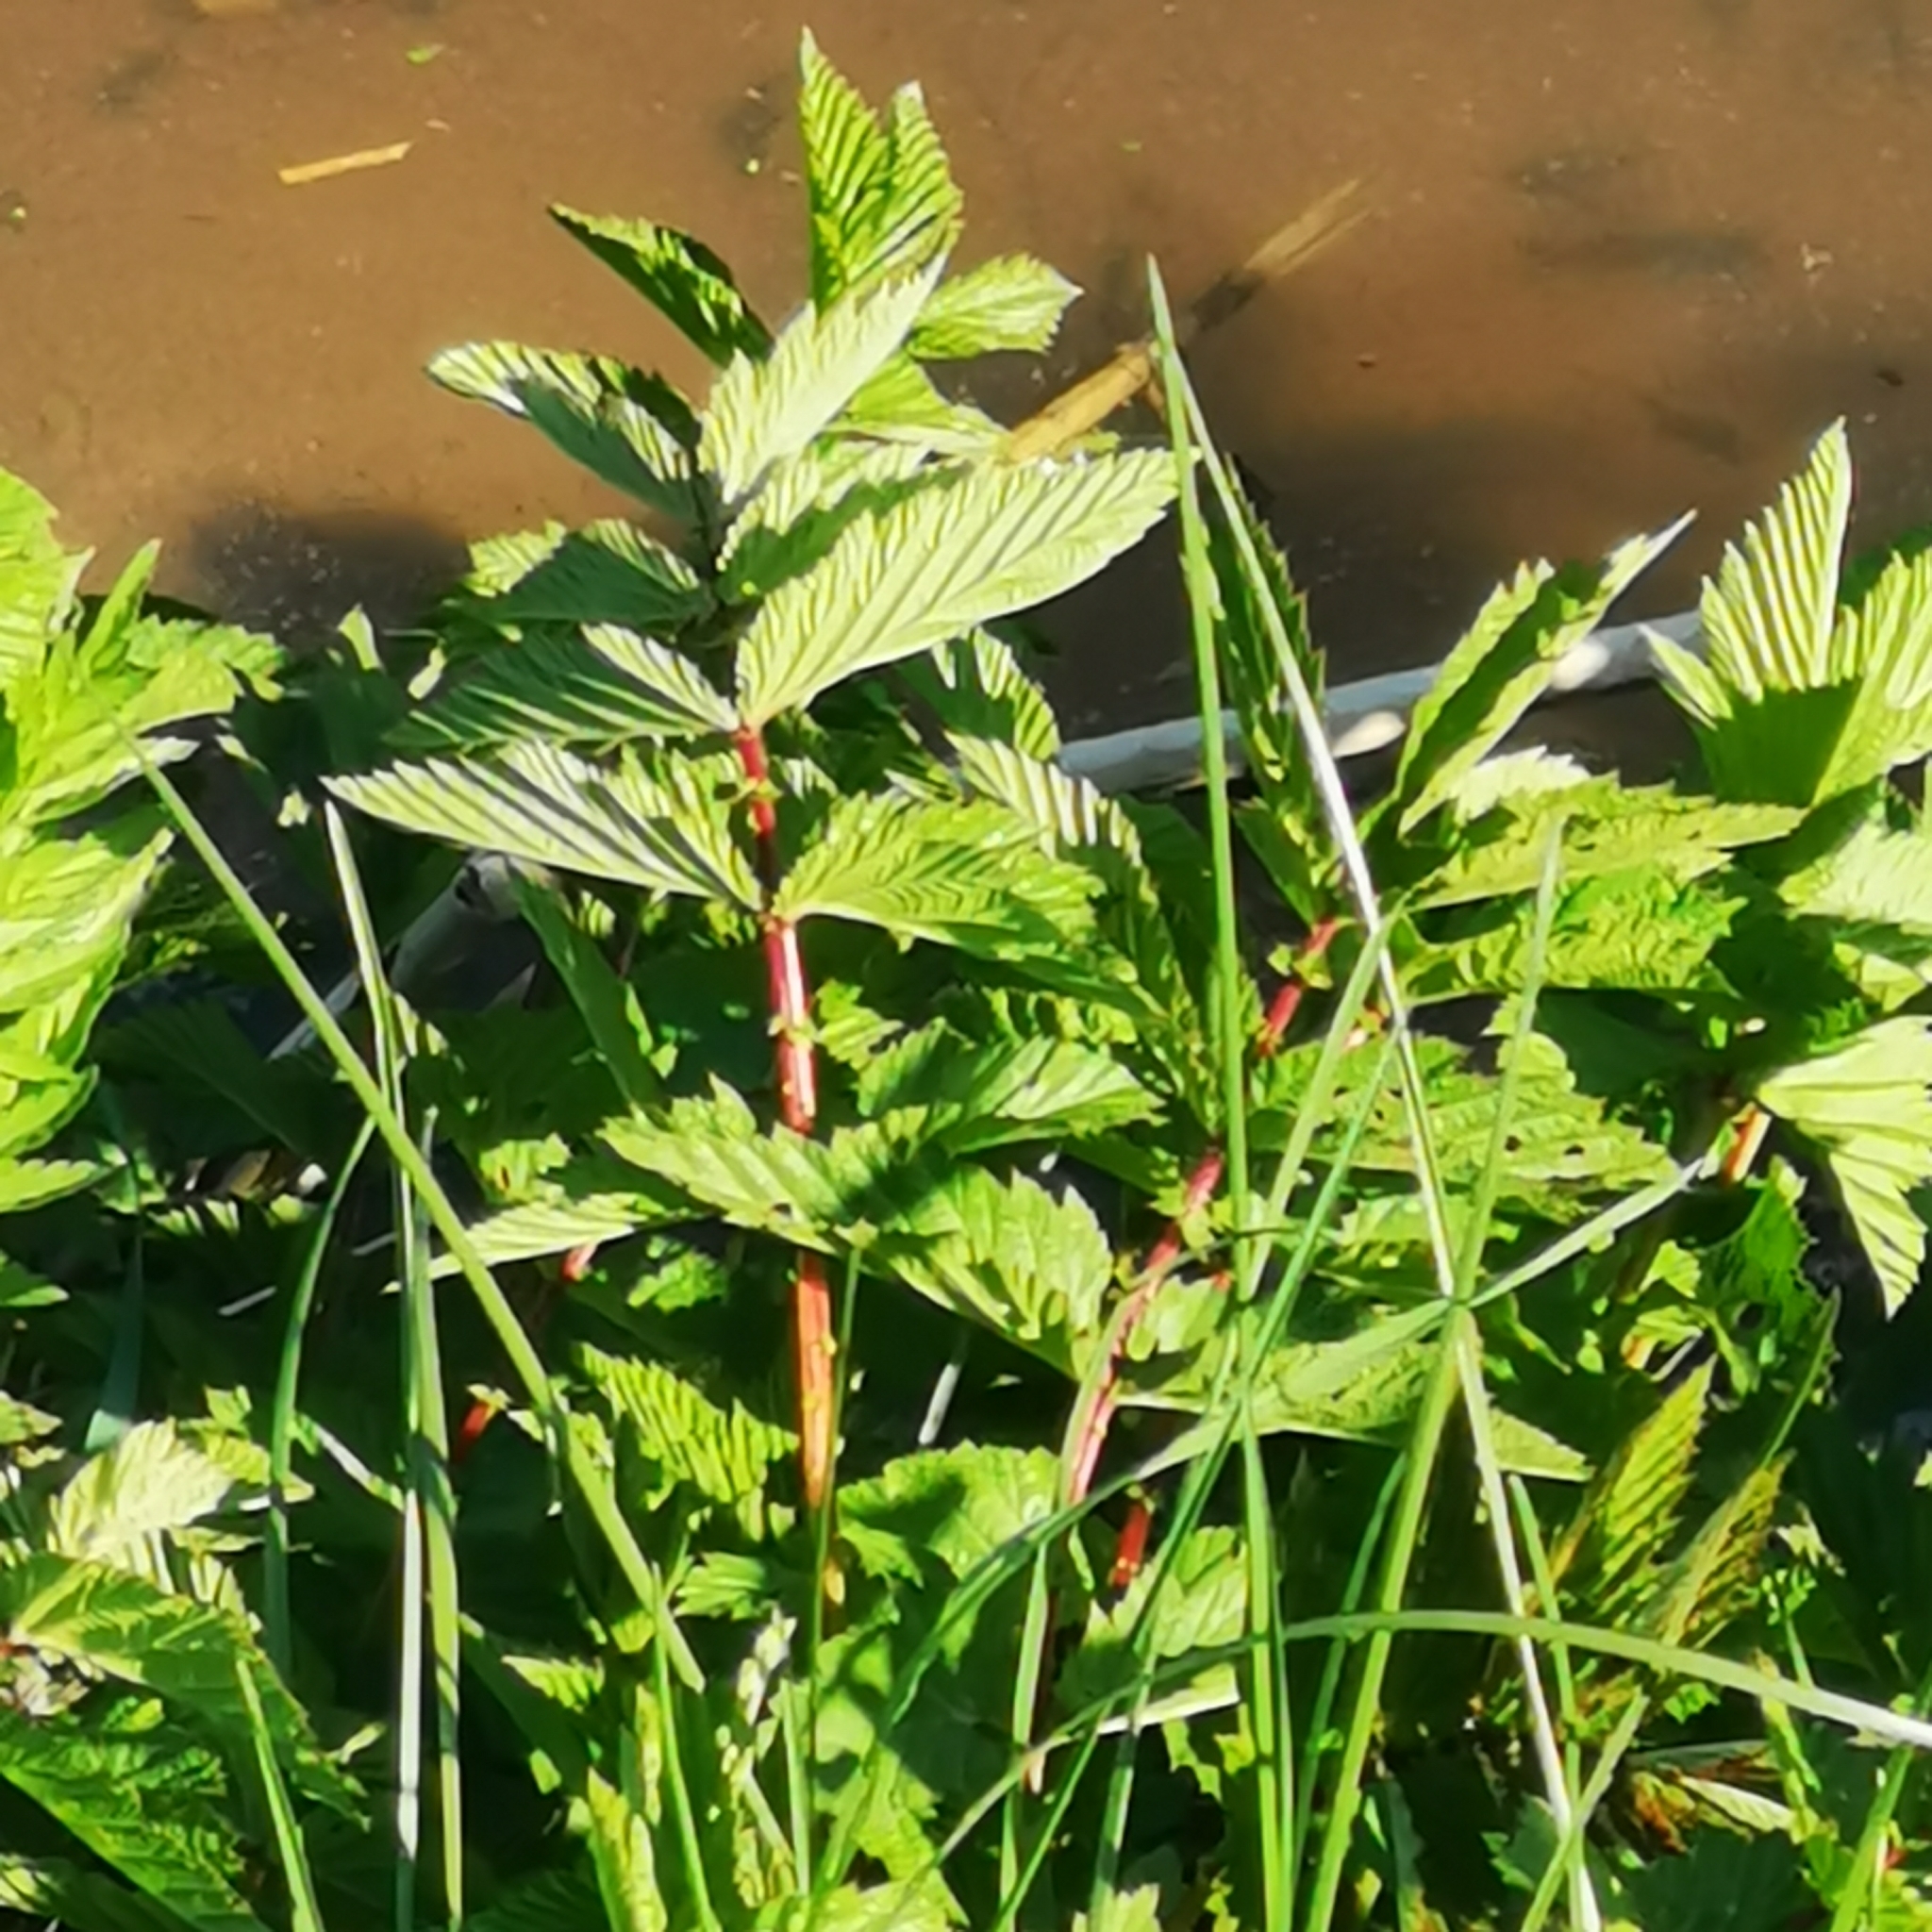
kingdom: Plantae
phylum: Tracheophyta
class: Magnoliopsida
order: Rosales
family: Rosaceae
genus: Filipendula
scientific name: Filipendula ulmaria
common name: Meadowsweet
